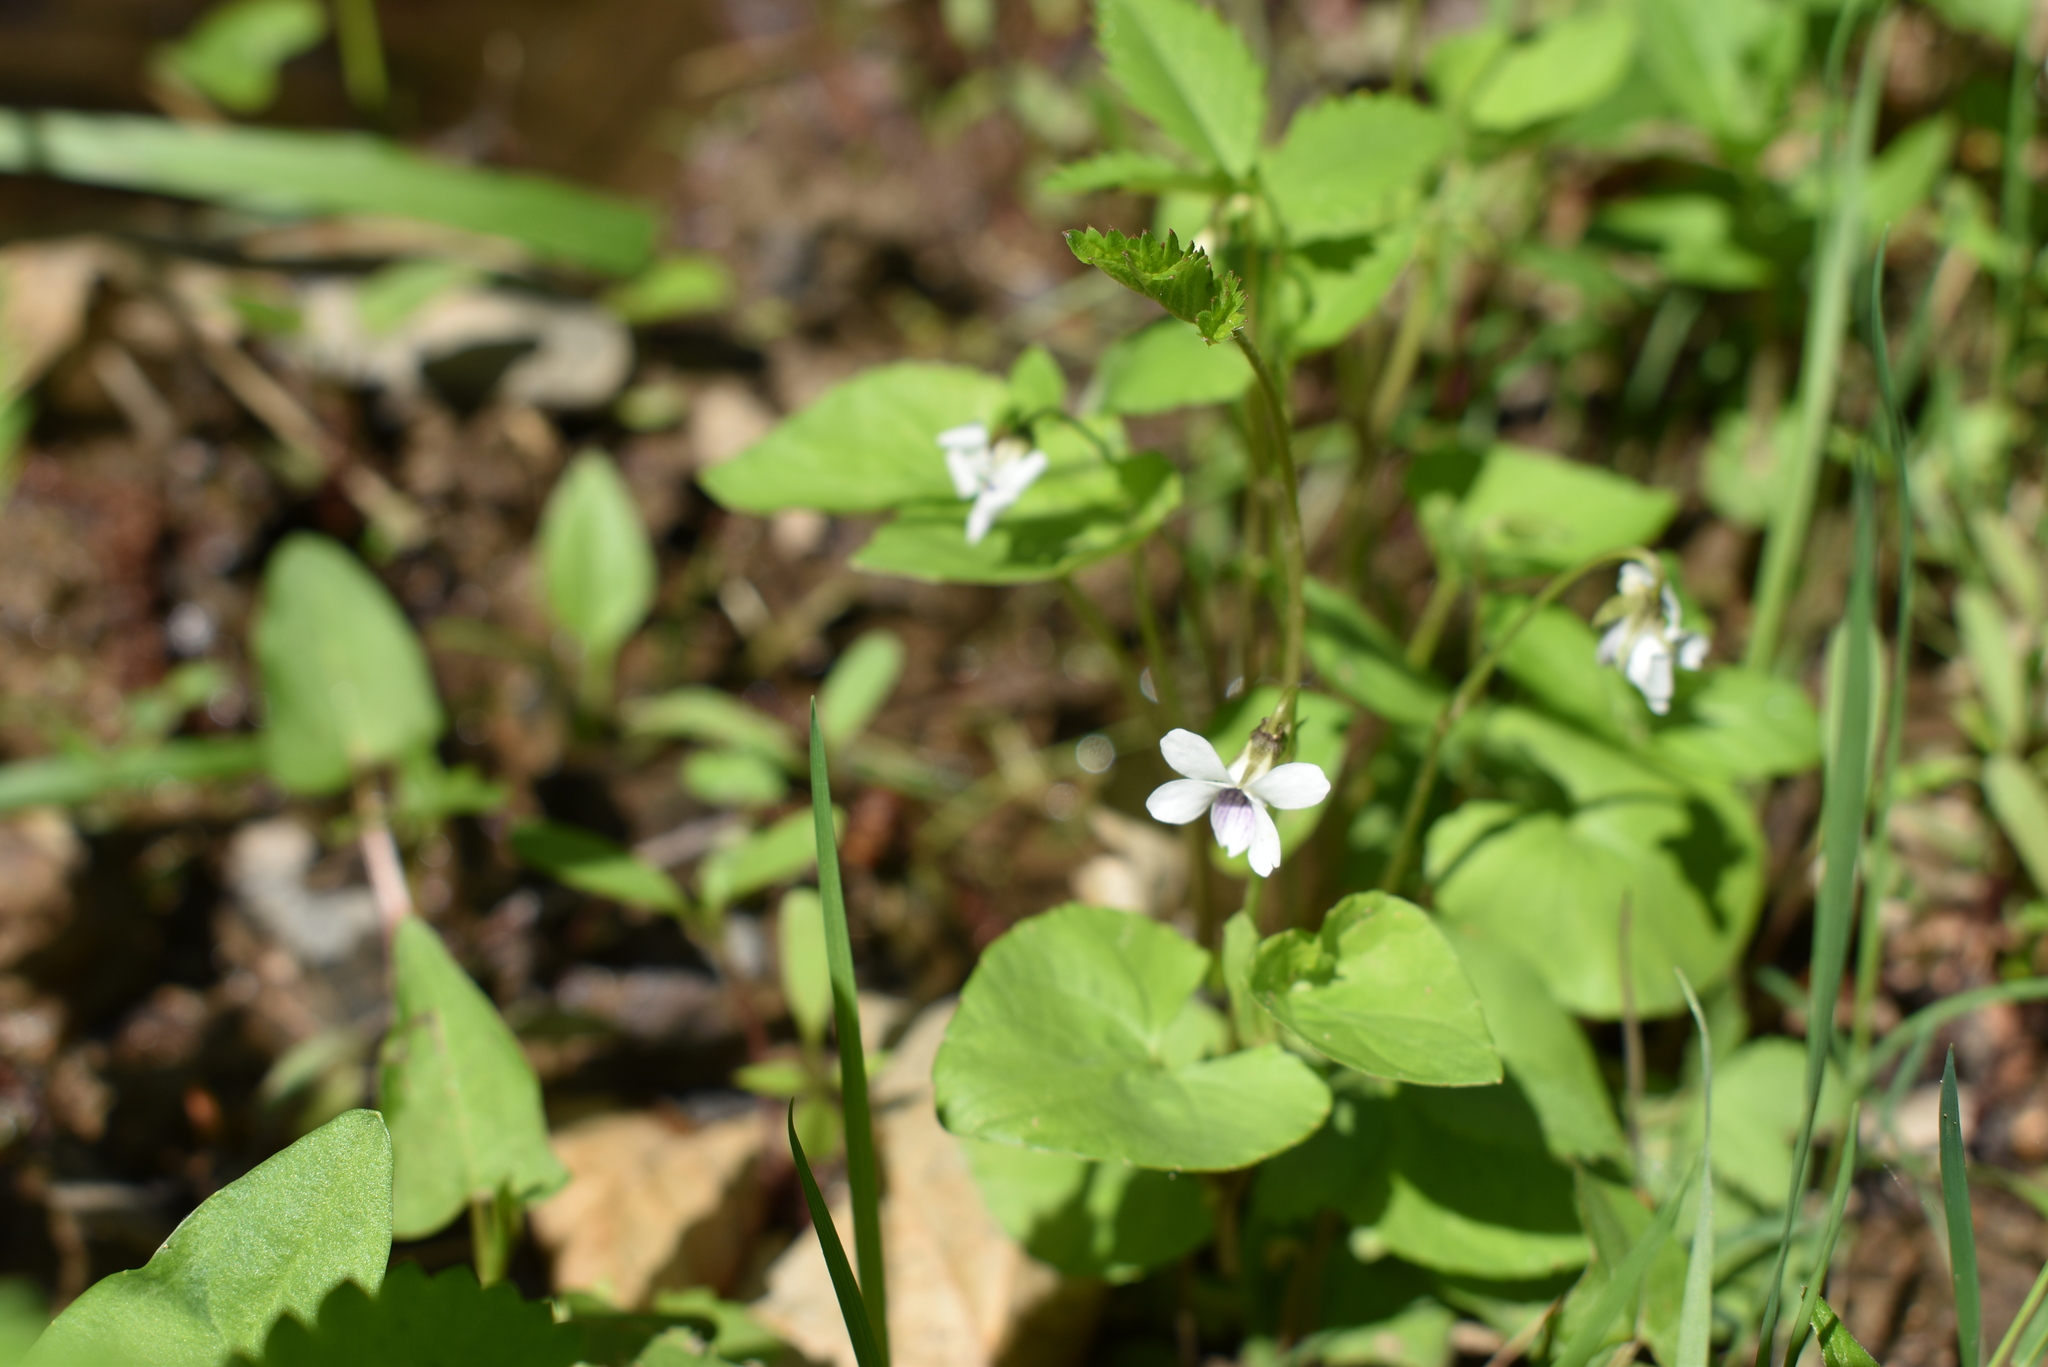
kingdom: Plantae
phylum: Tracheophyta
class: Magnoliopsida
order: Malpighiales
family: Violaceae
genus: Viola
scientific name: Viola
